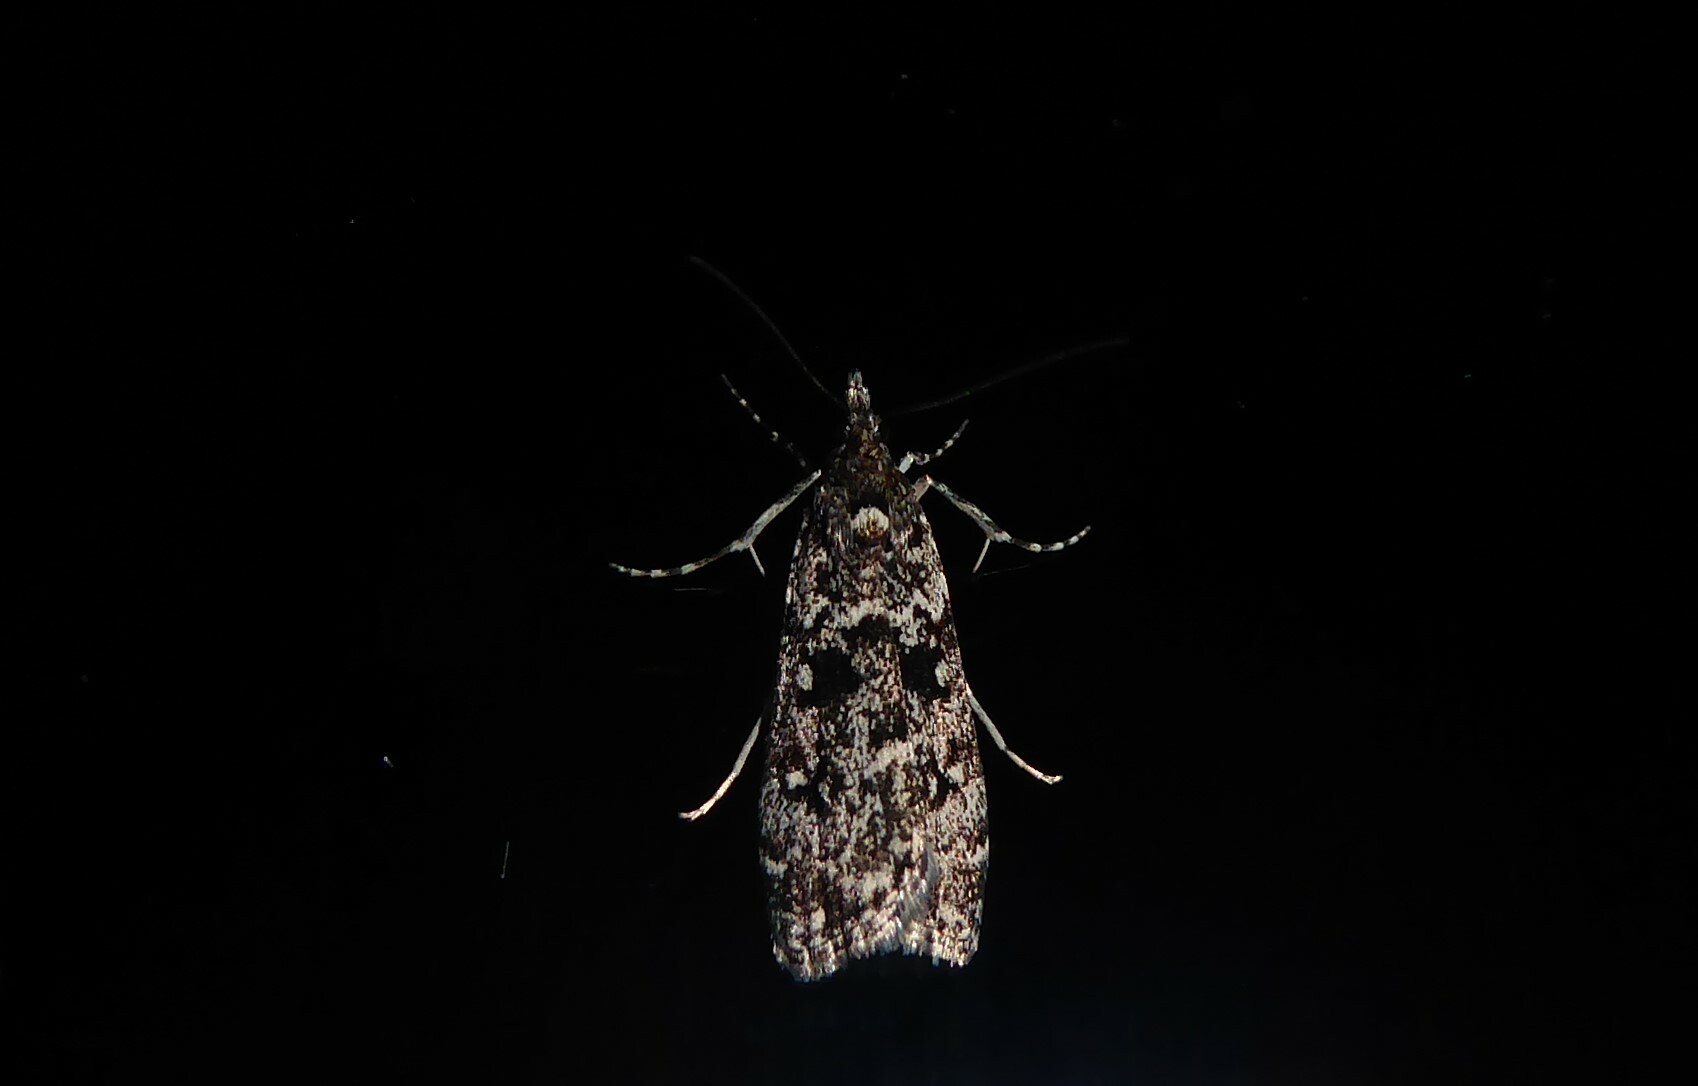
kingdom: Animalia
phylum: Arthropoda
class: Insecta
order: Lepidoptera
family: Crambidae
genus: Eudonia
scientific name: Eudonia philerga
